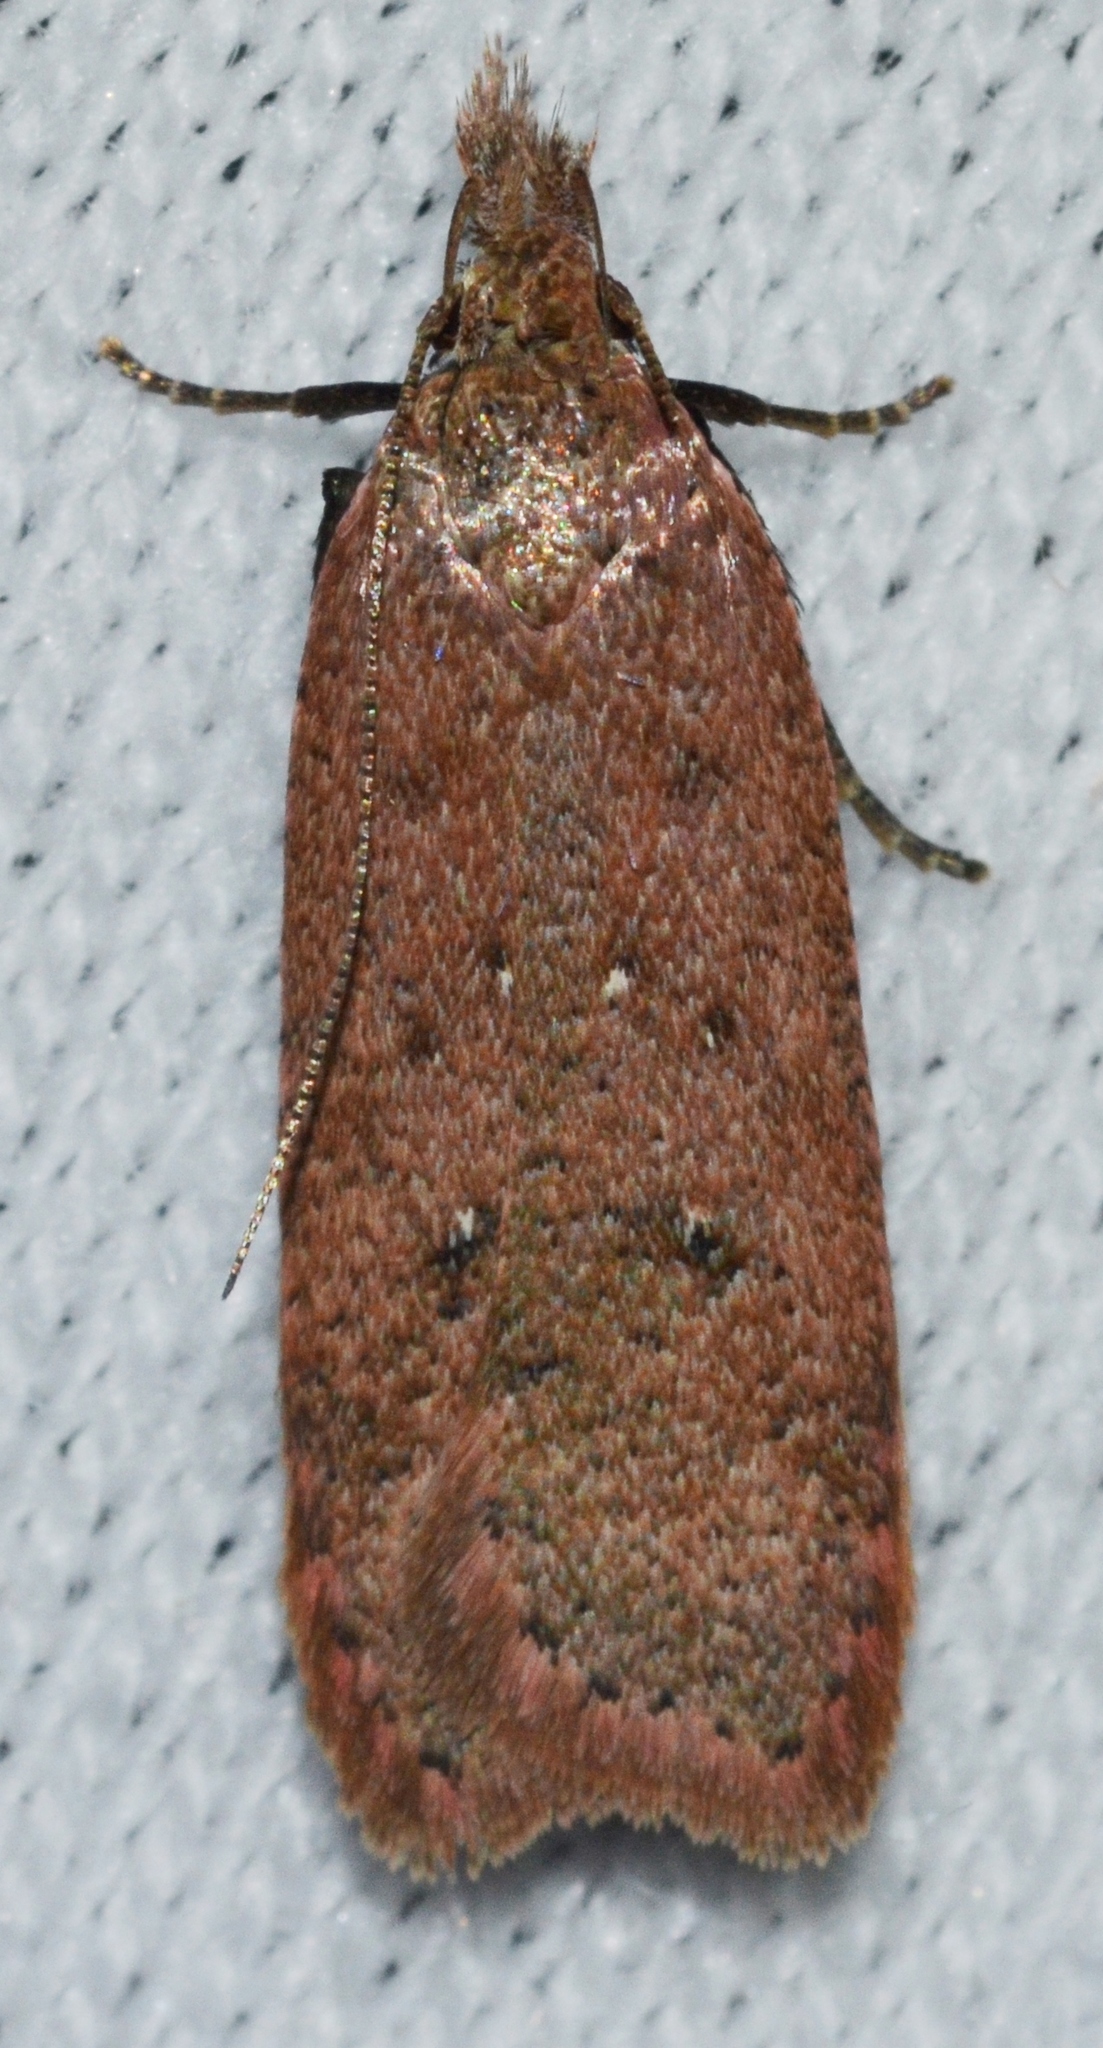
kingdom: Animalia
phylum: Arthropoda
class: Insecta
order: Lepidoptera
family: Gelechiidae
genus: Dichomeris
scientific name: Dichomeris ventrellus
